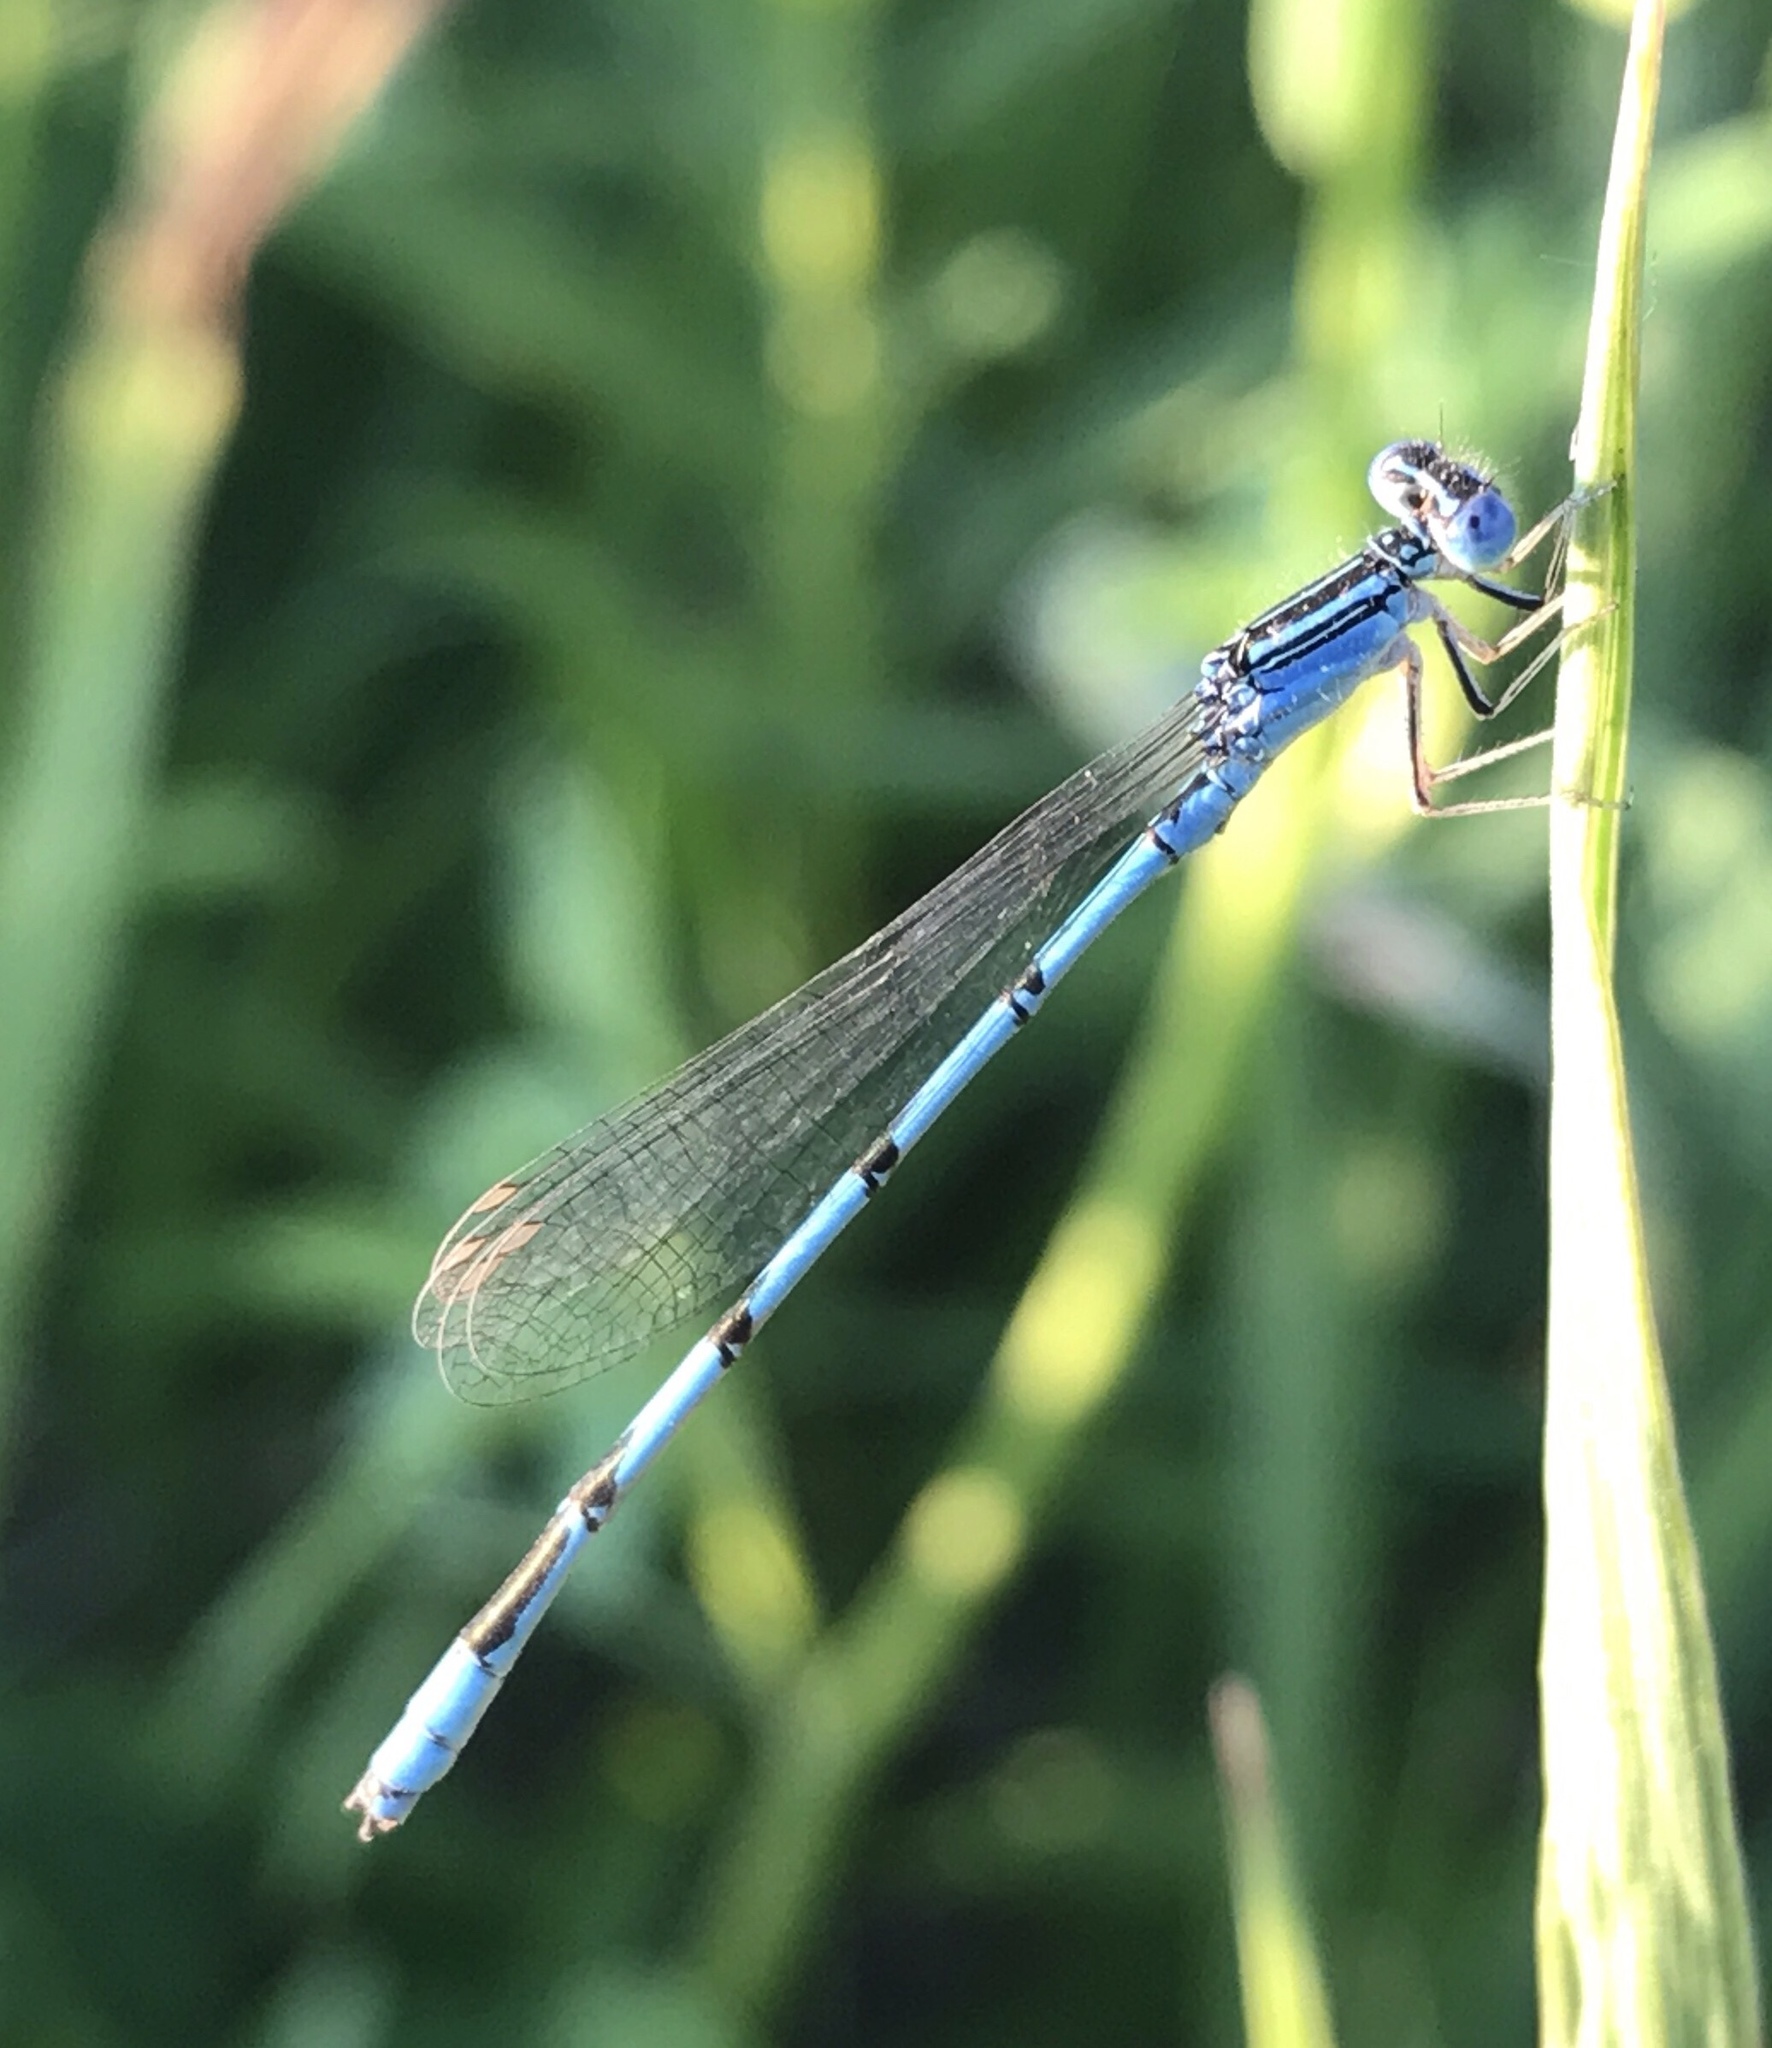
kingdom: Animalia
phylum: Arthropoda
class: Insecta
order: Odonata
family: Coenagrionidae
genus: Enallagma
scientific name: Enallagma basidens
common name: Double-striped bluet
